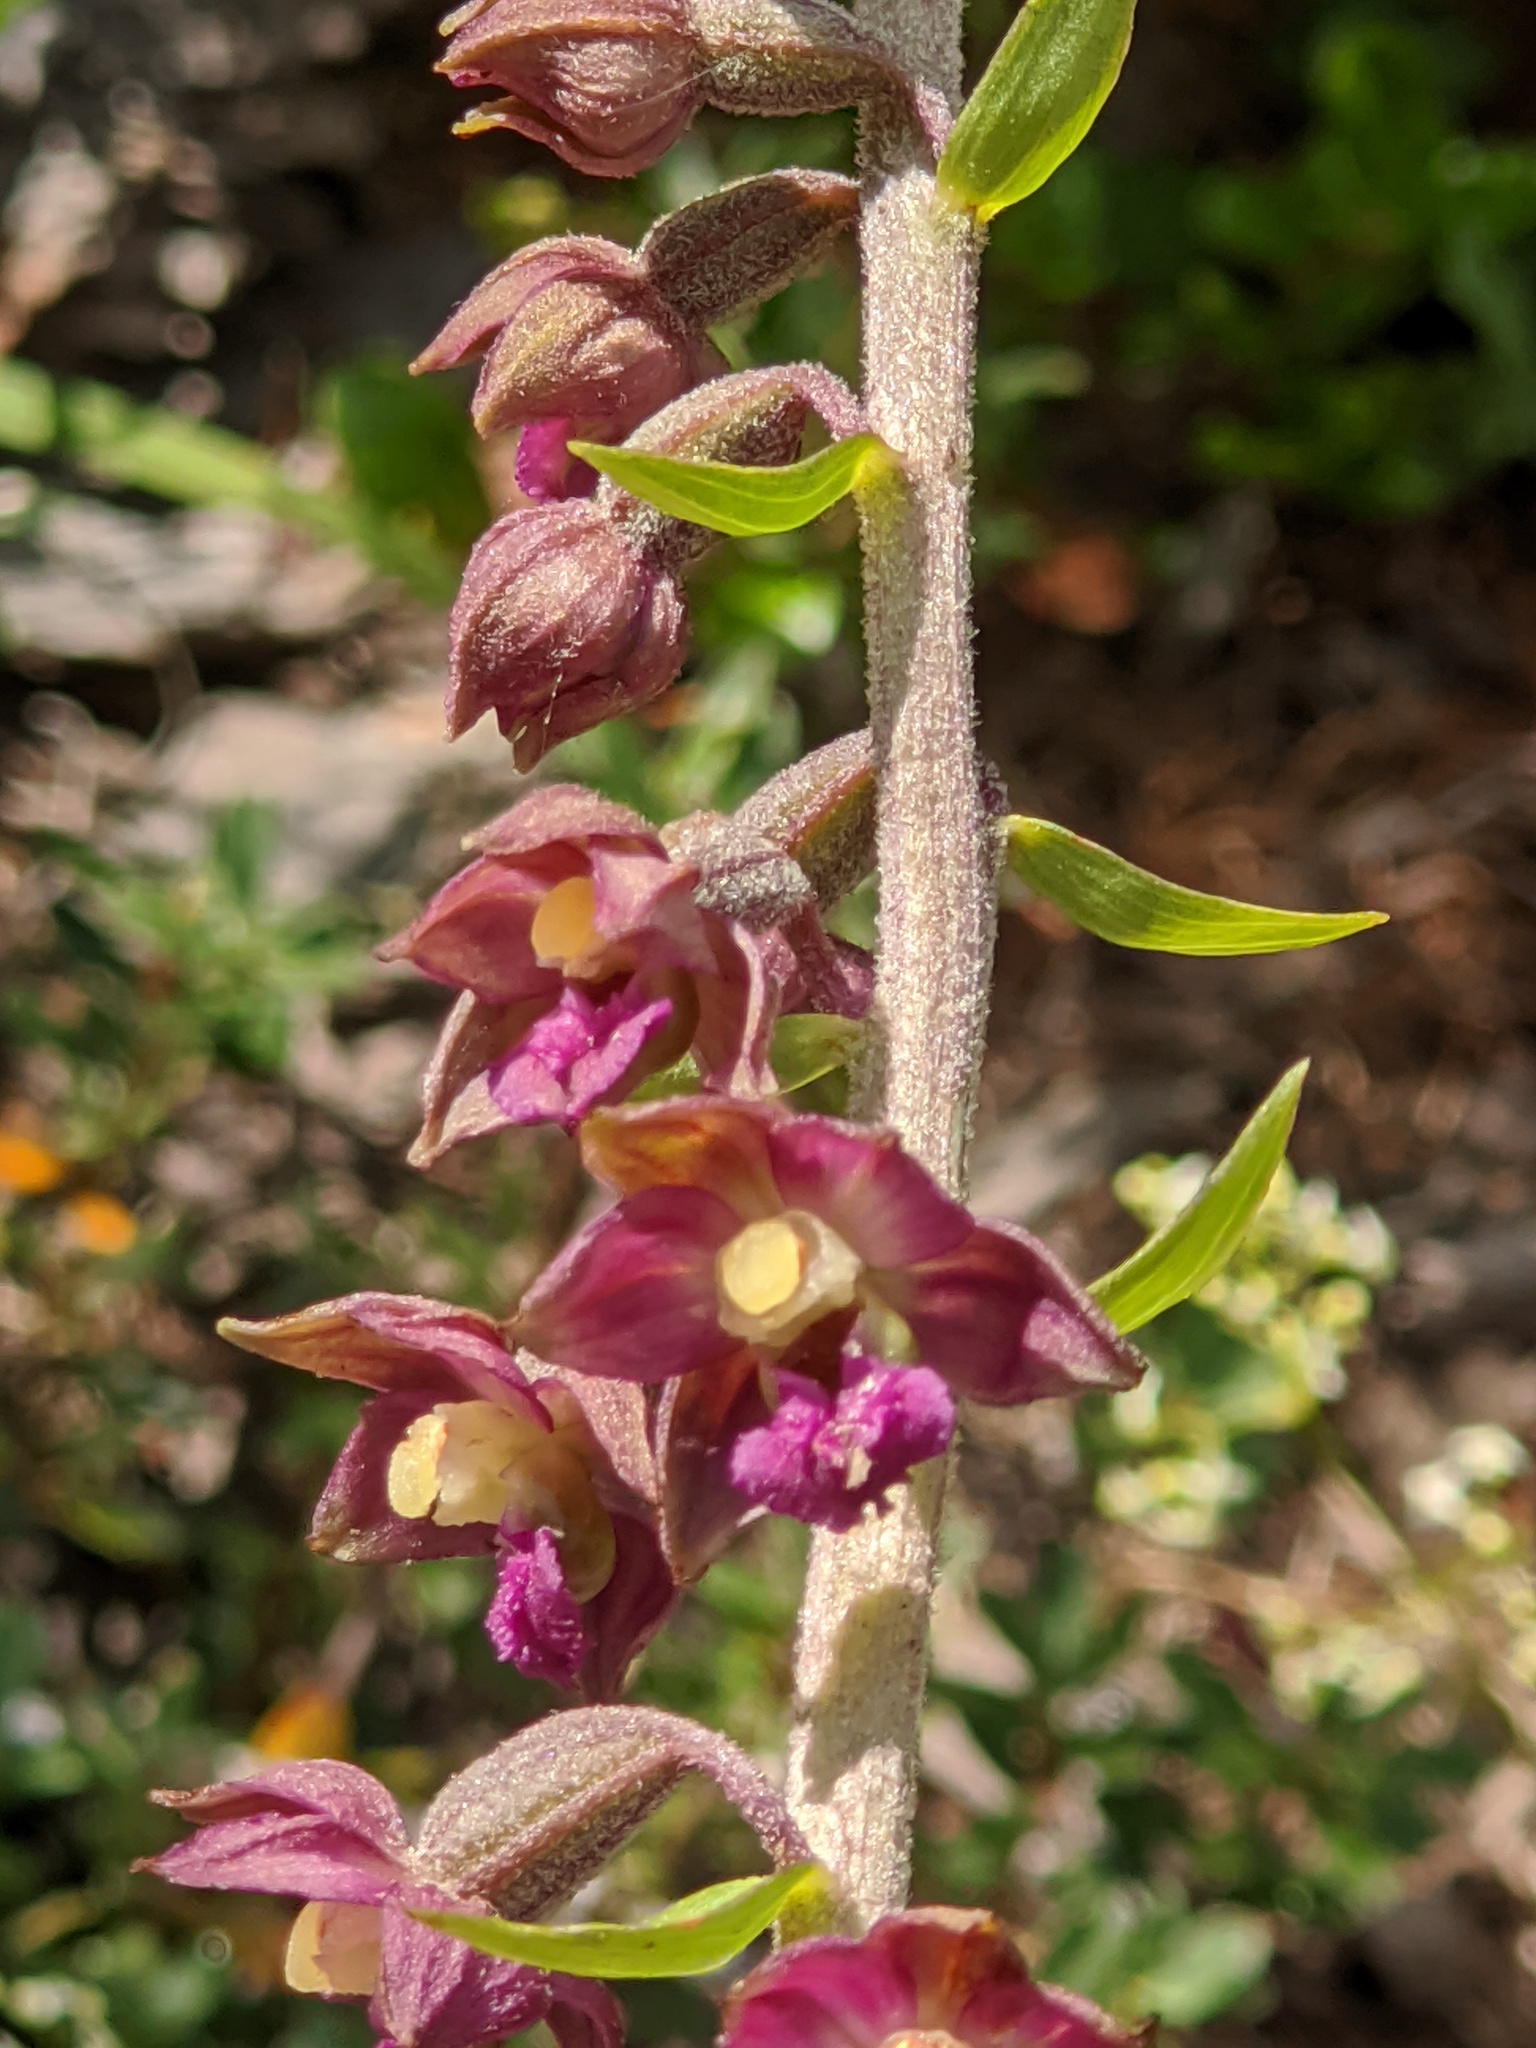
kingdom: Plantae
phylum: Tracheophyta
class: Liliopsida
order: Asparagales
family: Orchidaceae
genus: Epipactis
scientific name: Epipactis atrorubens
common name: Dark-red helleborine
